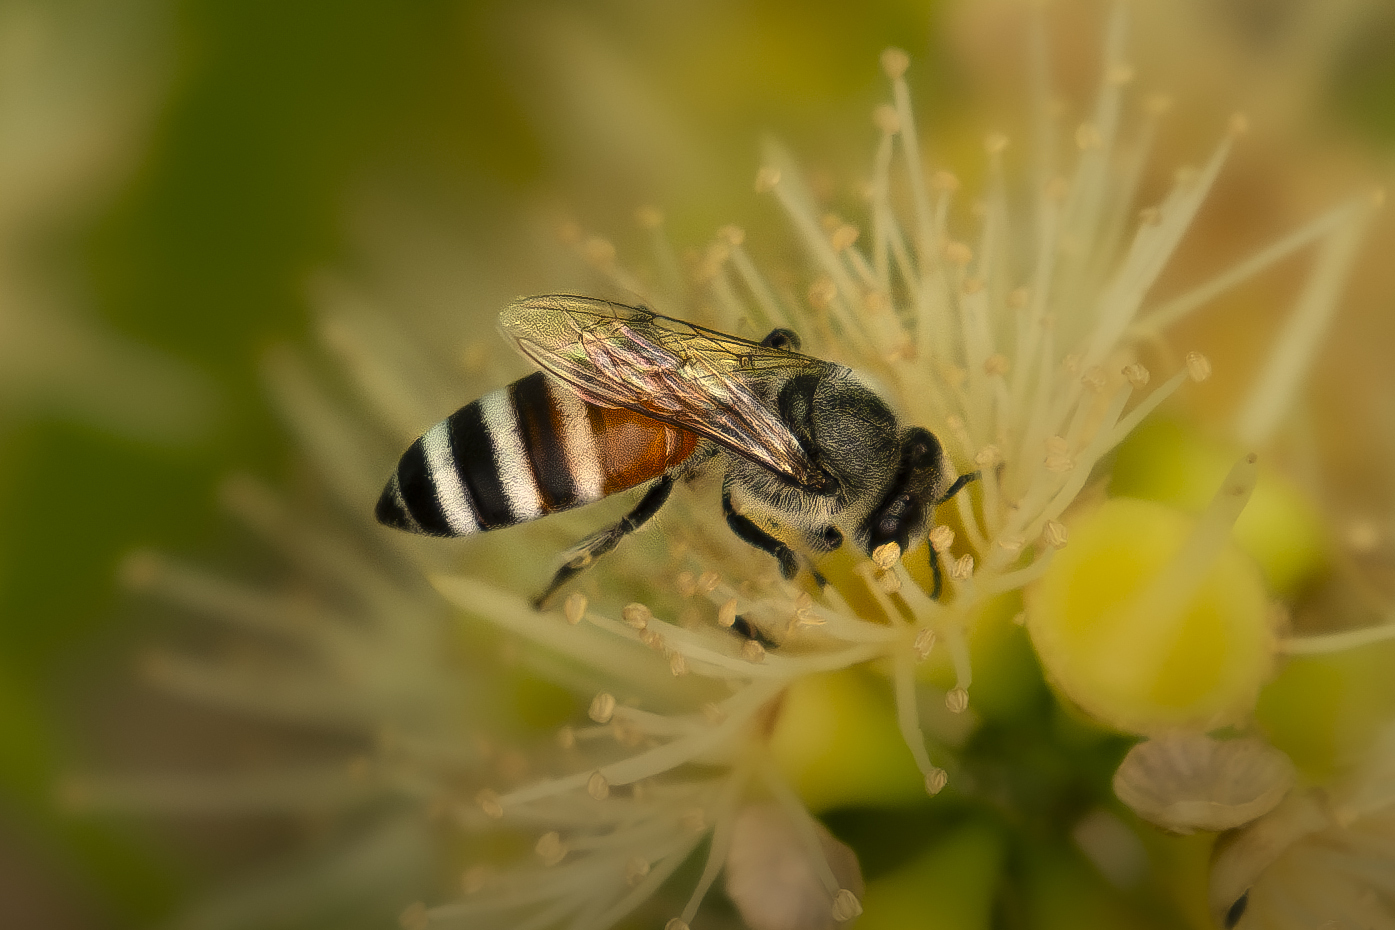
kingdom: Animalia
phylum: Arthropoda
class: Insecta
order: Hymenoptera
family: Apidae
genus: Apis
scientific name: Apis florea
